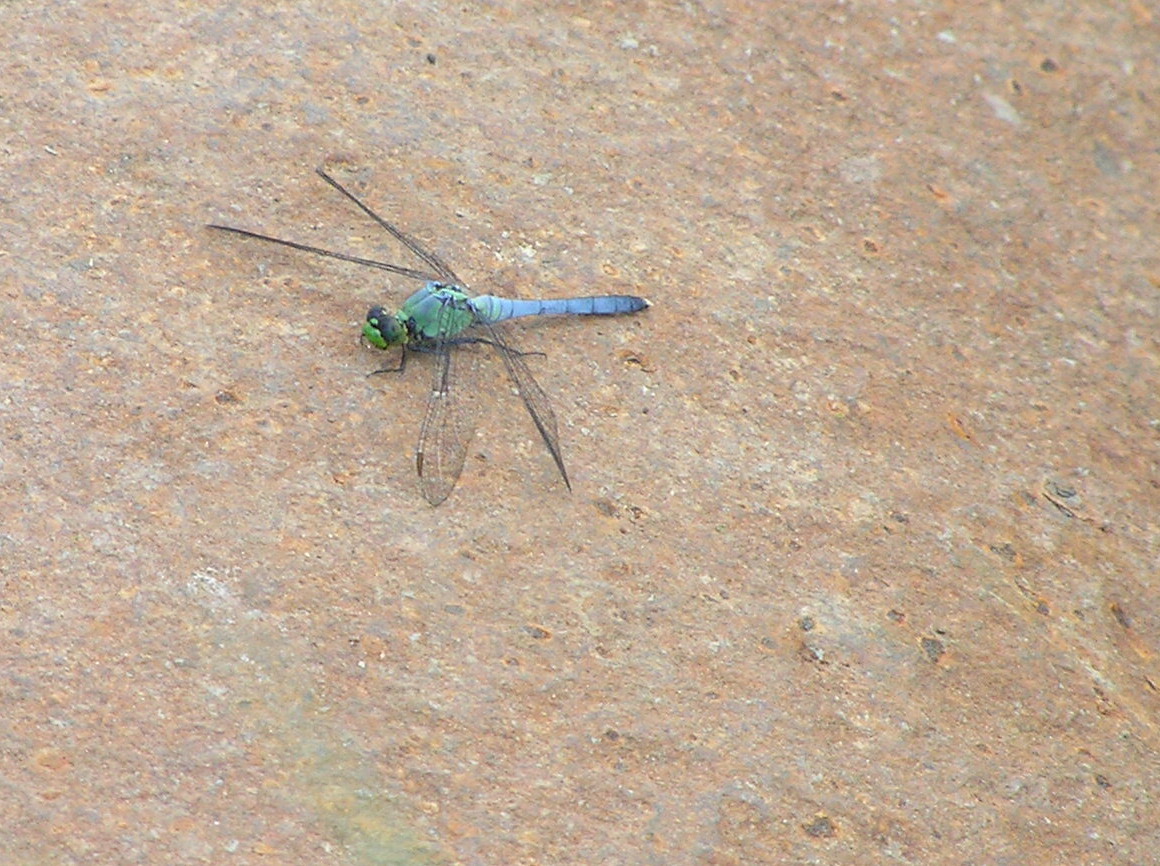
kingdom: Animalia
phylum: Arthropoda
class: Insecta
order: Odonata
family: Libellulidae
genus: Erythemis
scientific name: Erythemis simplicicollis
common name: Eastern pondhawk
